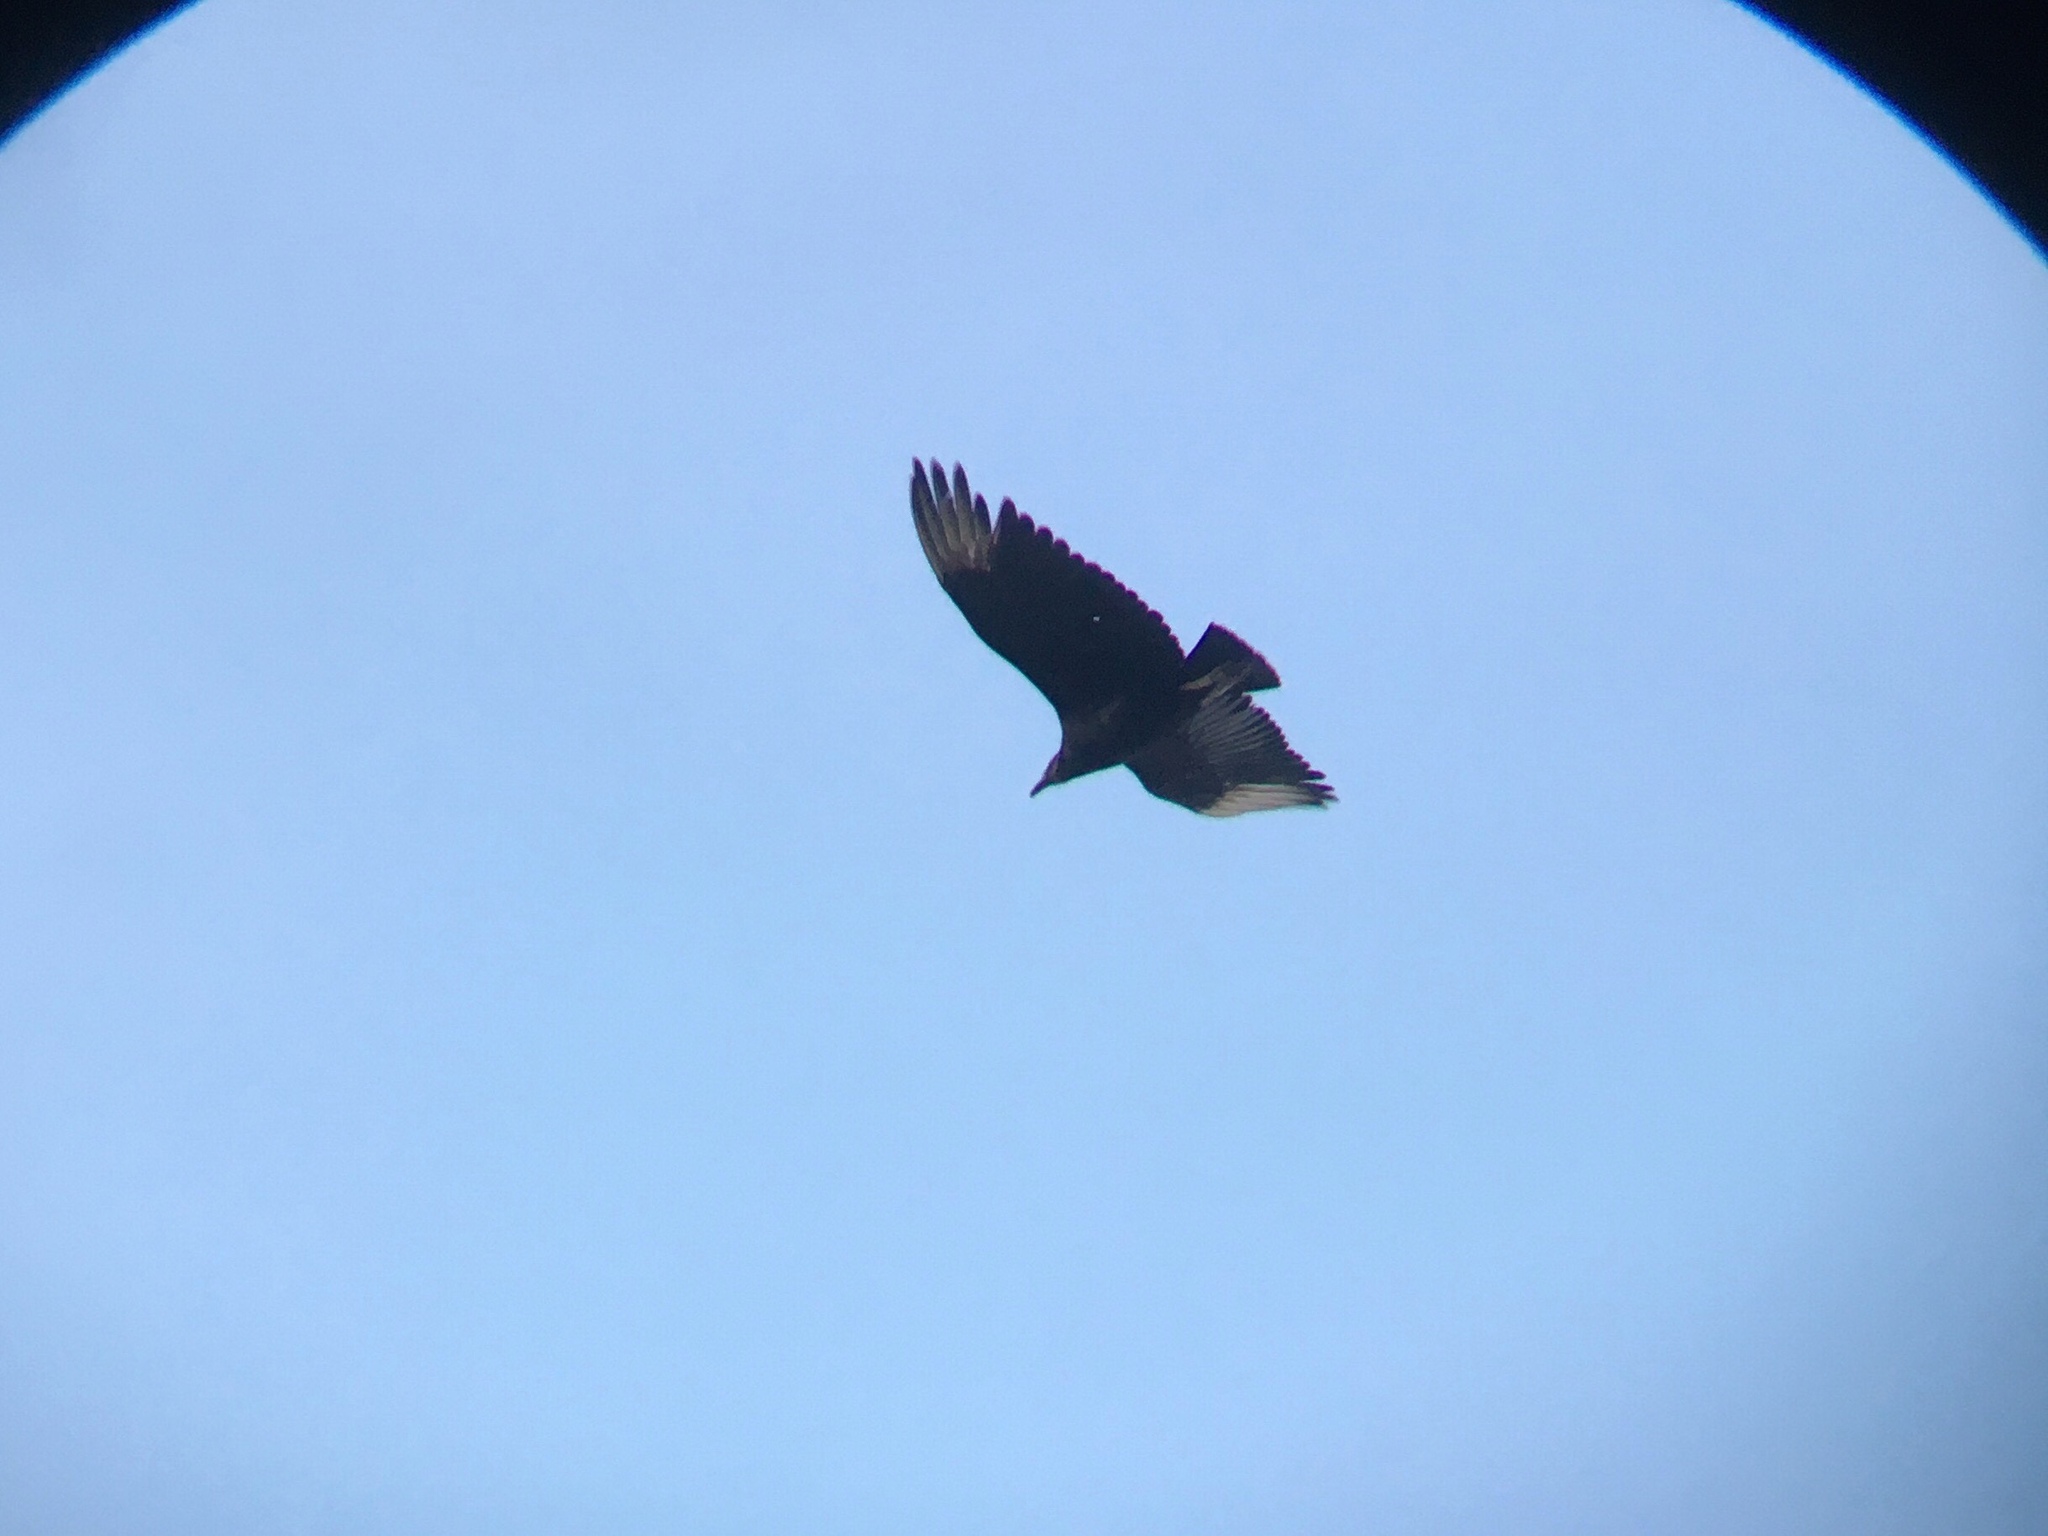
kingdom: Animalia
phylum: Chordata
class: Aves
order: Accipitriformes
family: Cathartidae
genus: Coragyps
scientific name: Coragyps atratus
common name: Black vulture
